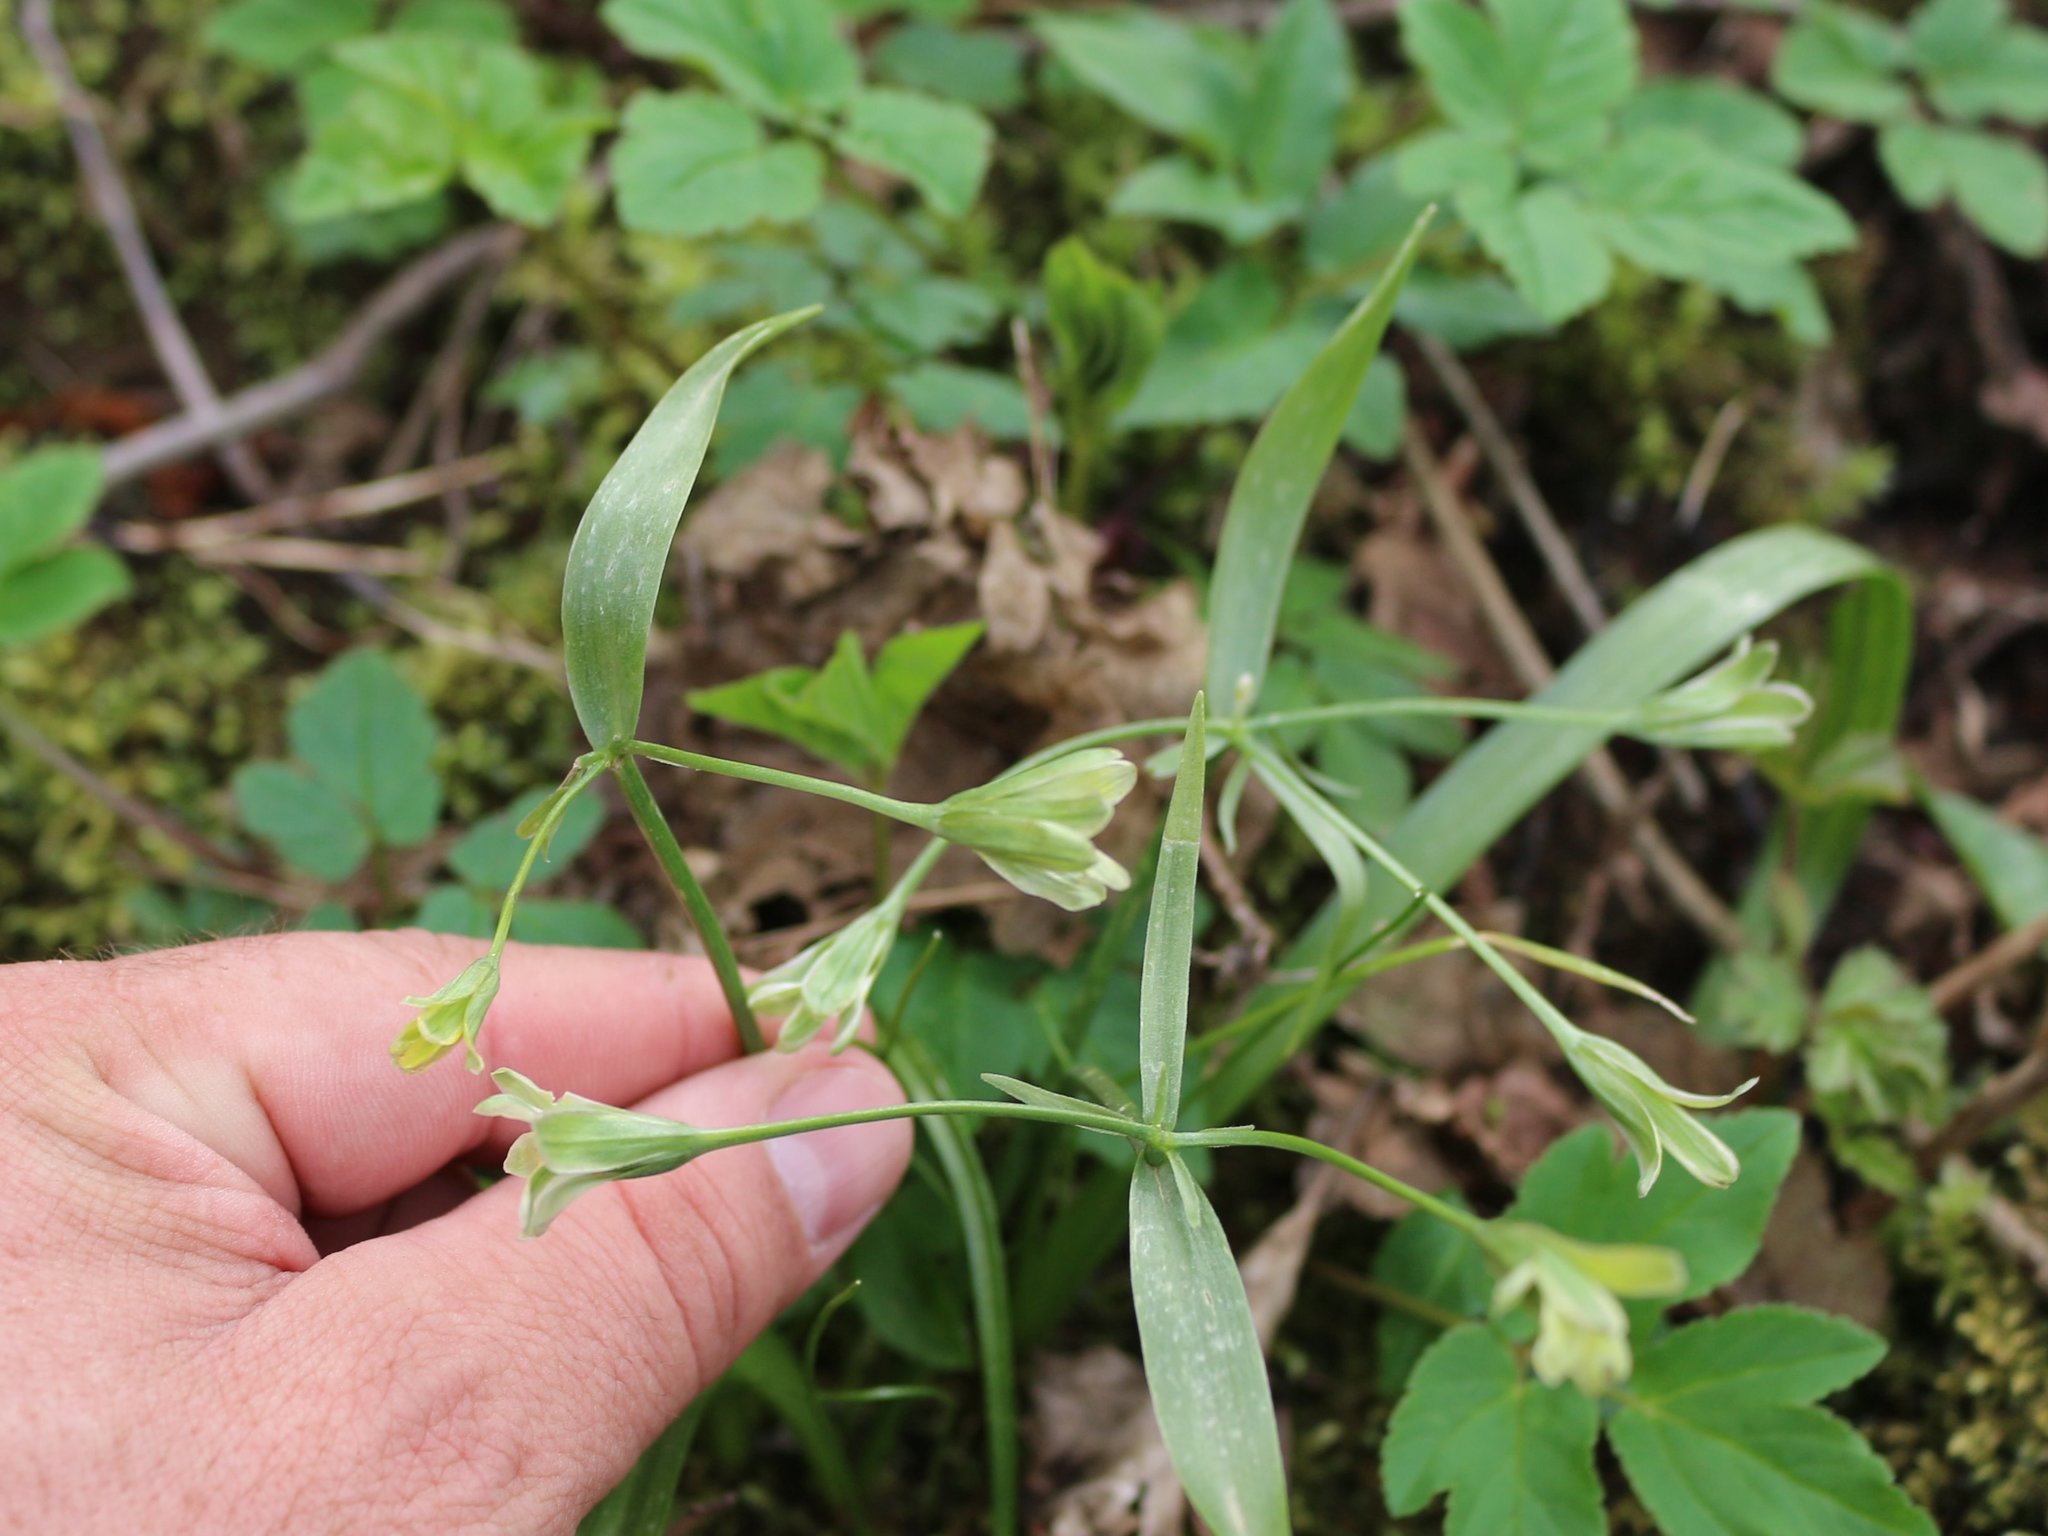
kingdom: Plantae
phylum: Tracheophyta
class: Liliopsida
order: Liliales
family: Liliaceae
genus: Gagea
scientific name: Gagea lutea
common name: Yellow star-of-bethlehem
